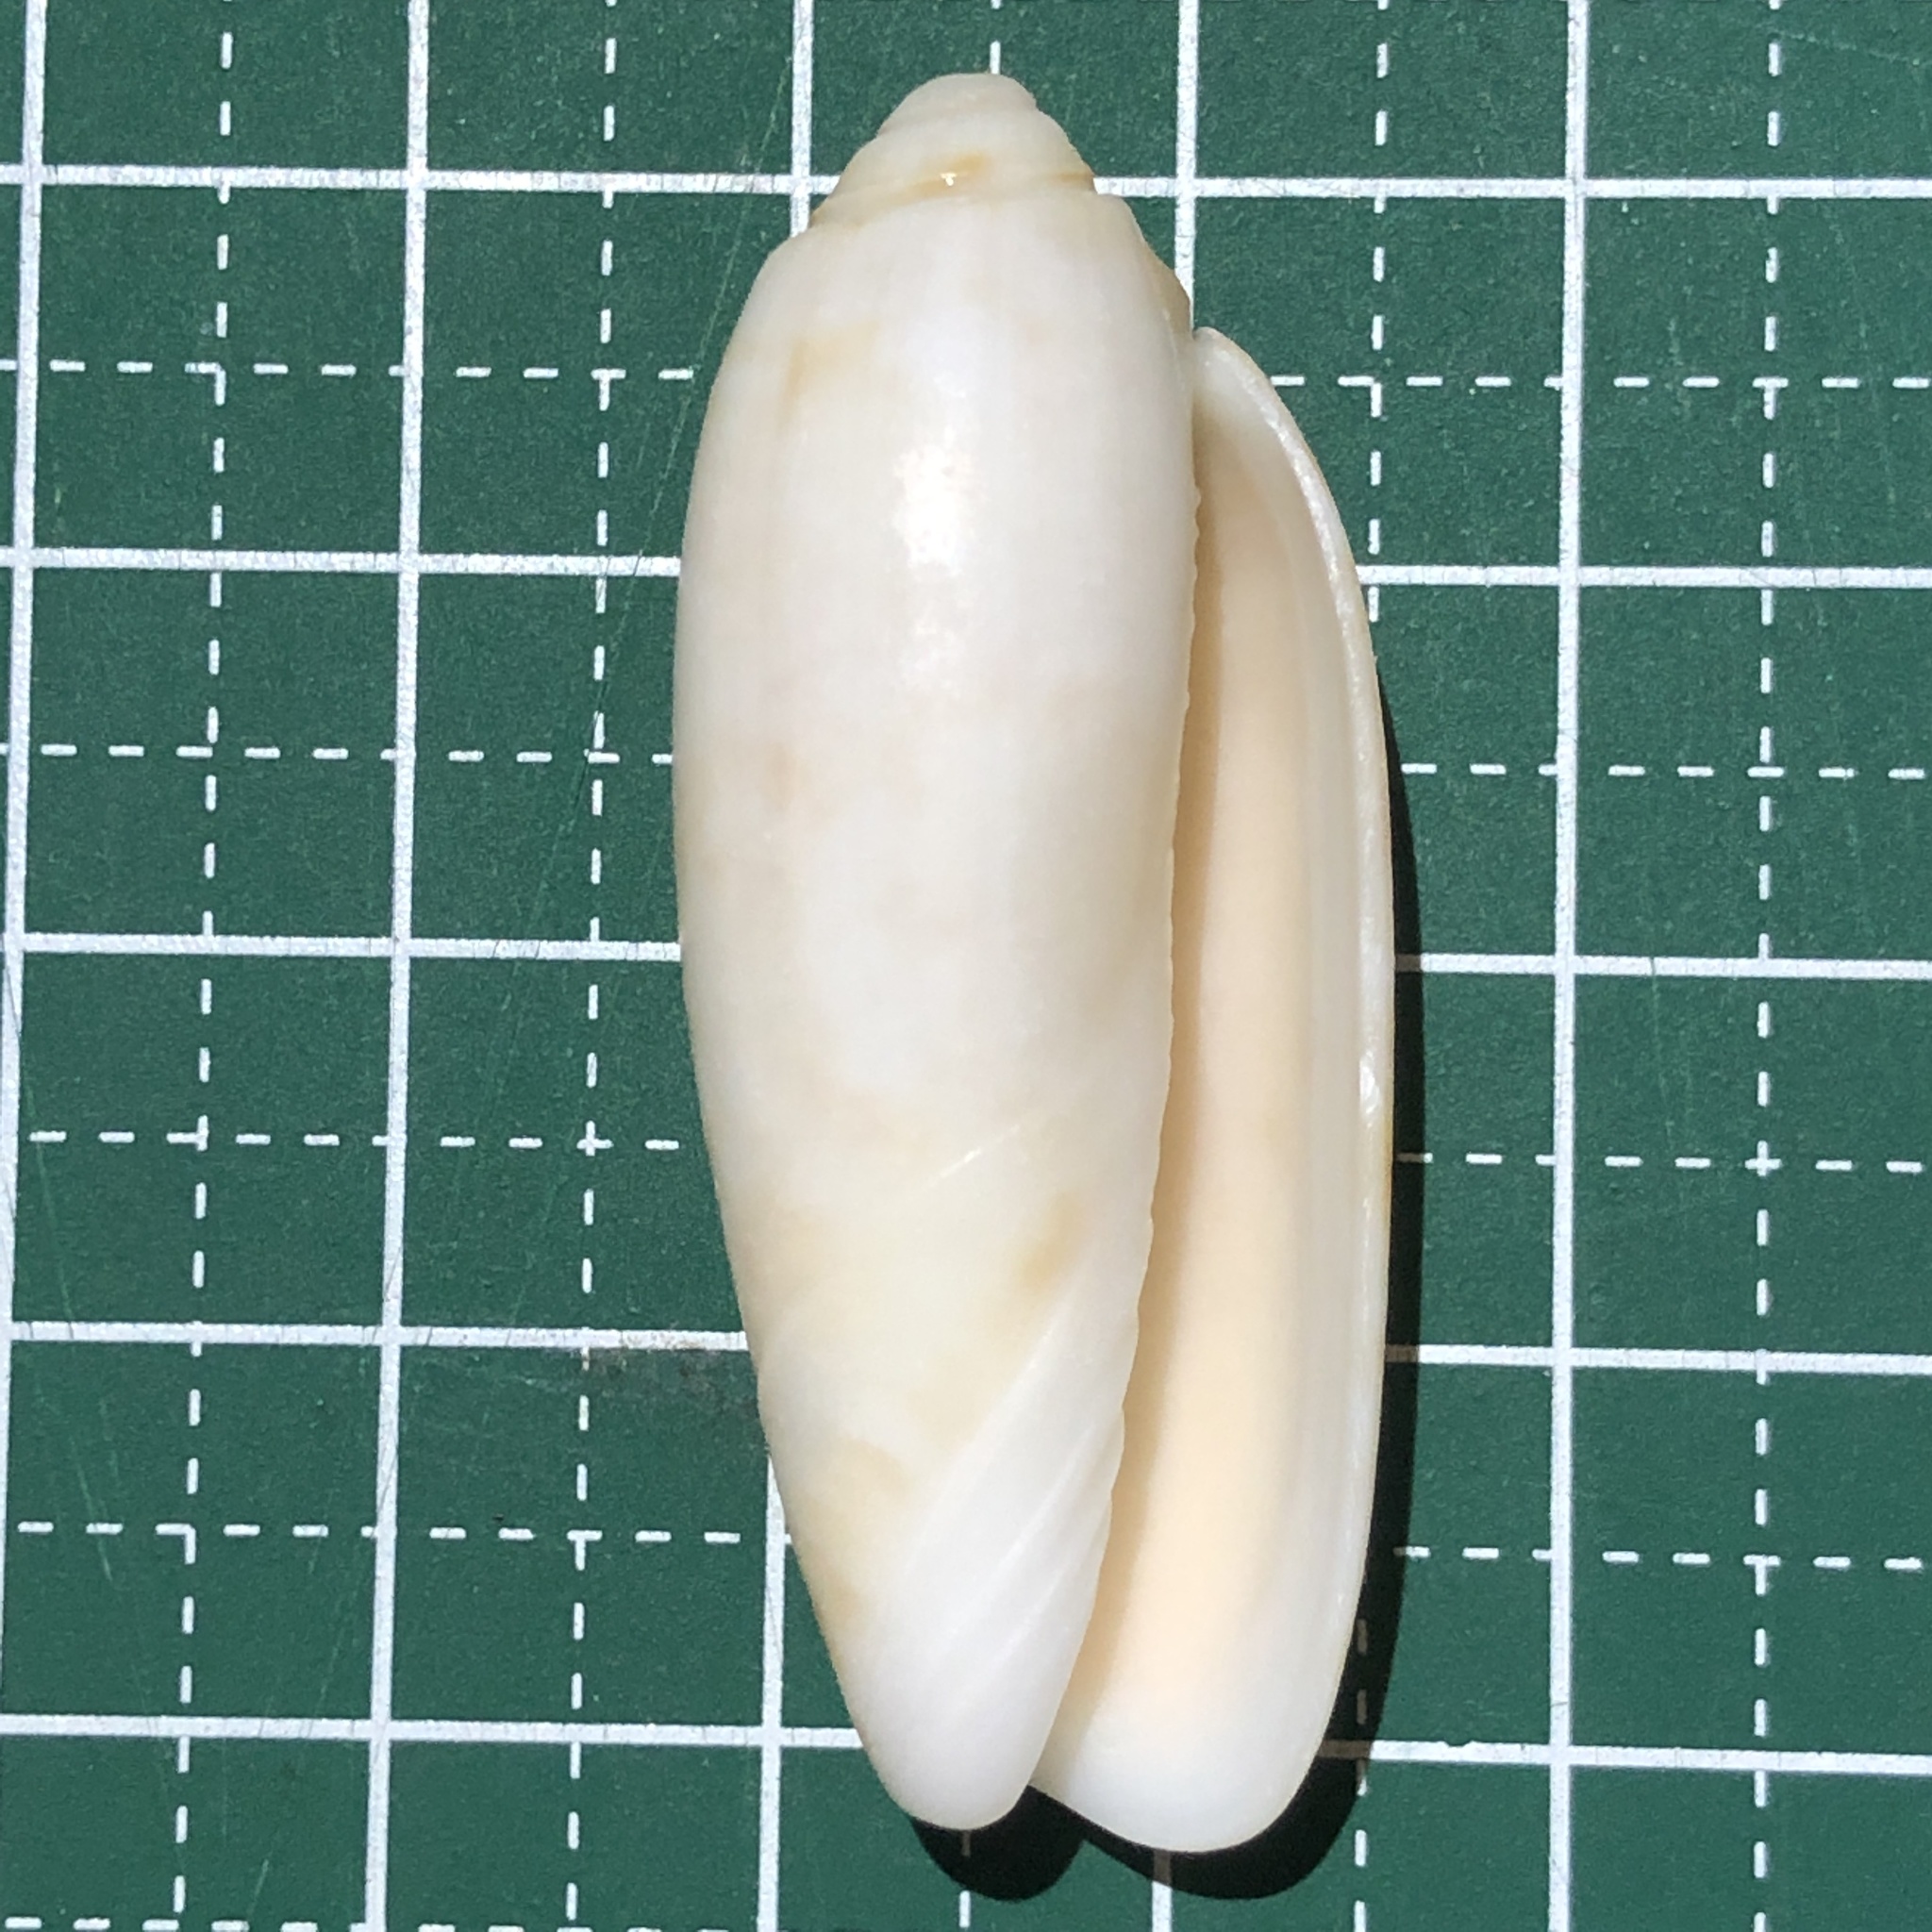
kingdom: Animalia
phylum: Mollusca
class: Gastropoda
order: Neogastropoda
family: Olividae
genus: Oliva
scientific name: Oliva miniacea
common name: Pacific common olive
